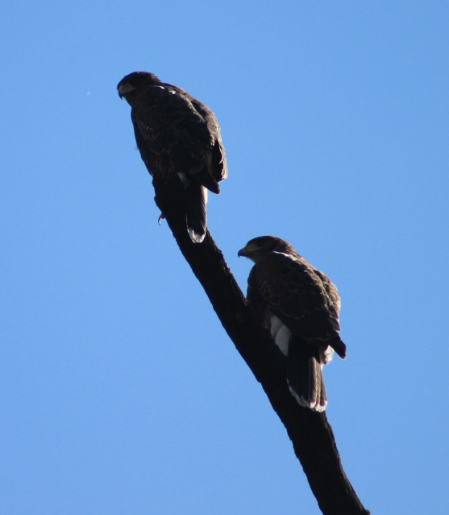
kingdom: Animalia
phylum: Chordata
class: Aves
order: Accipitriformes
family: Accipitridae
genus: Parabuteo
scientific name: Parabuteo unicinctus
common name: Harris's hawk
